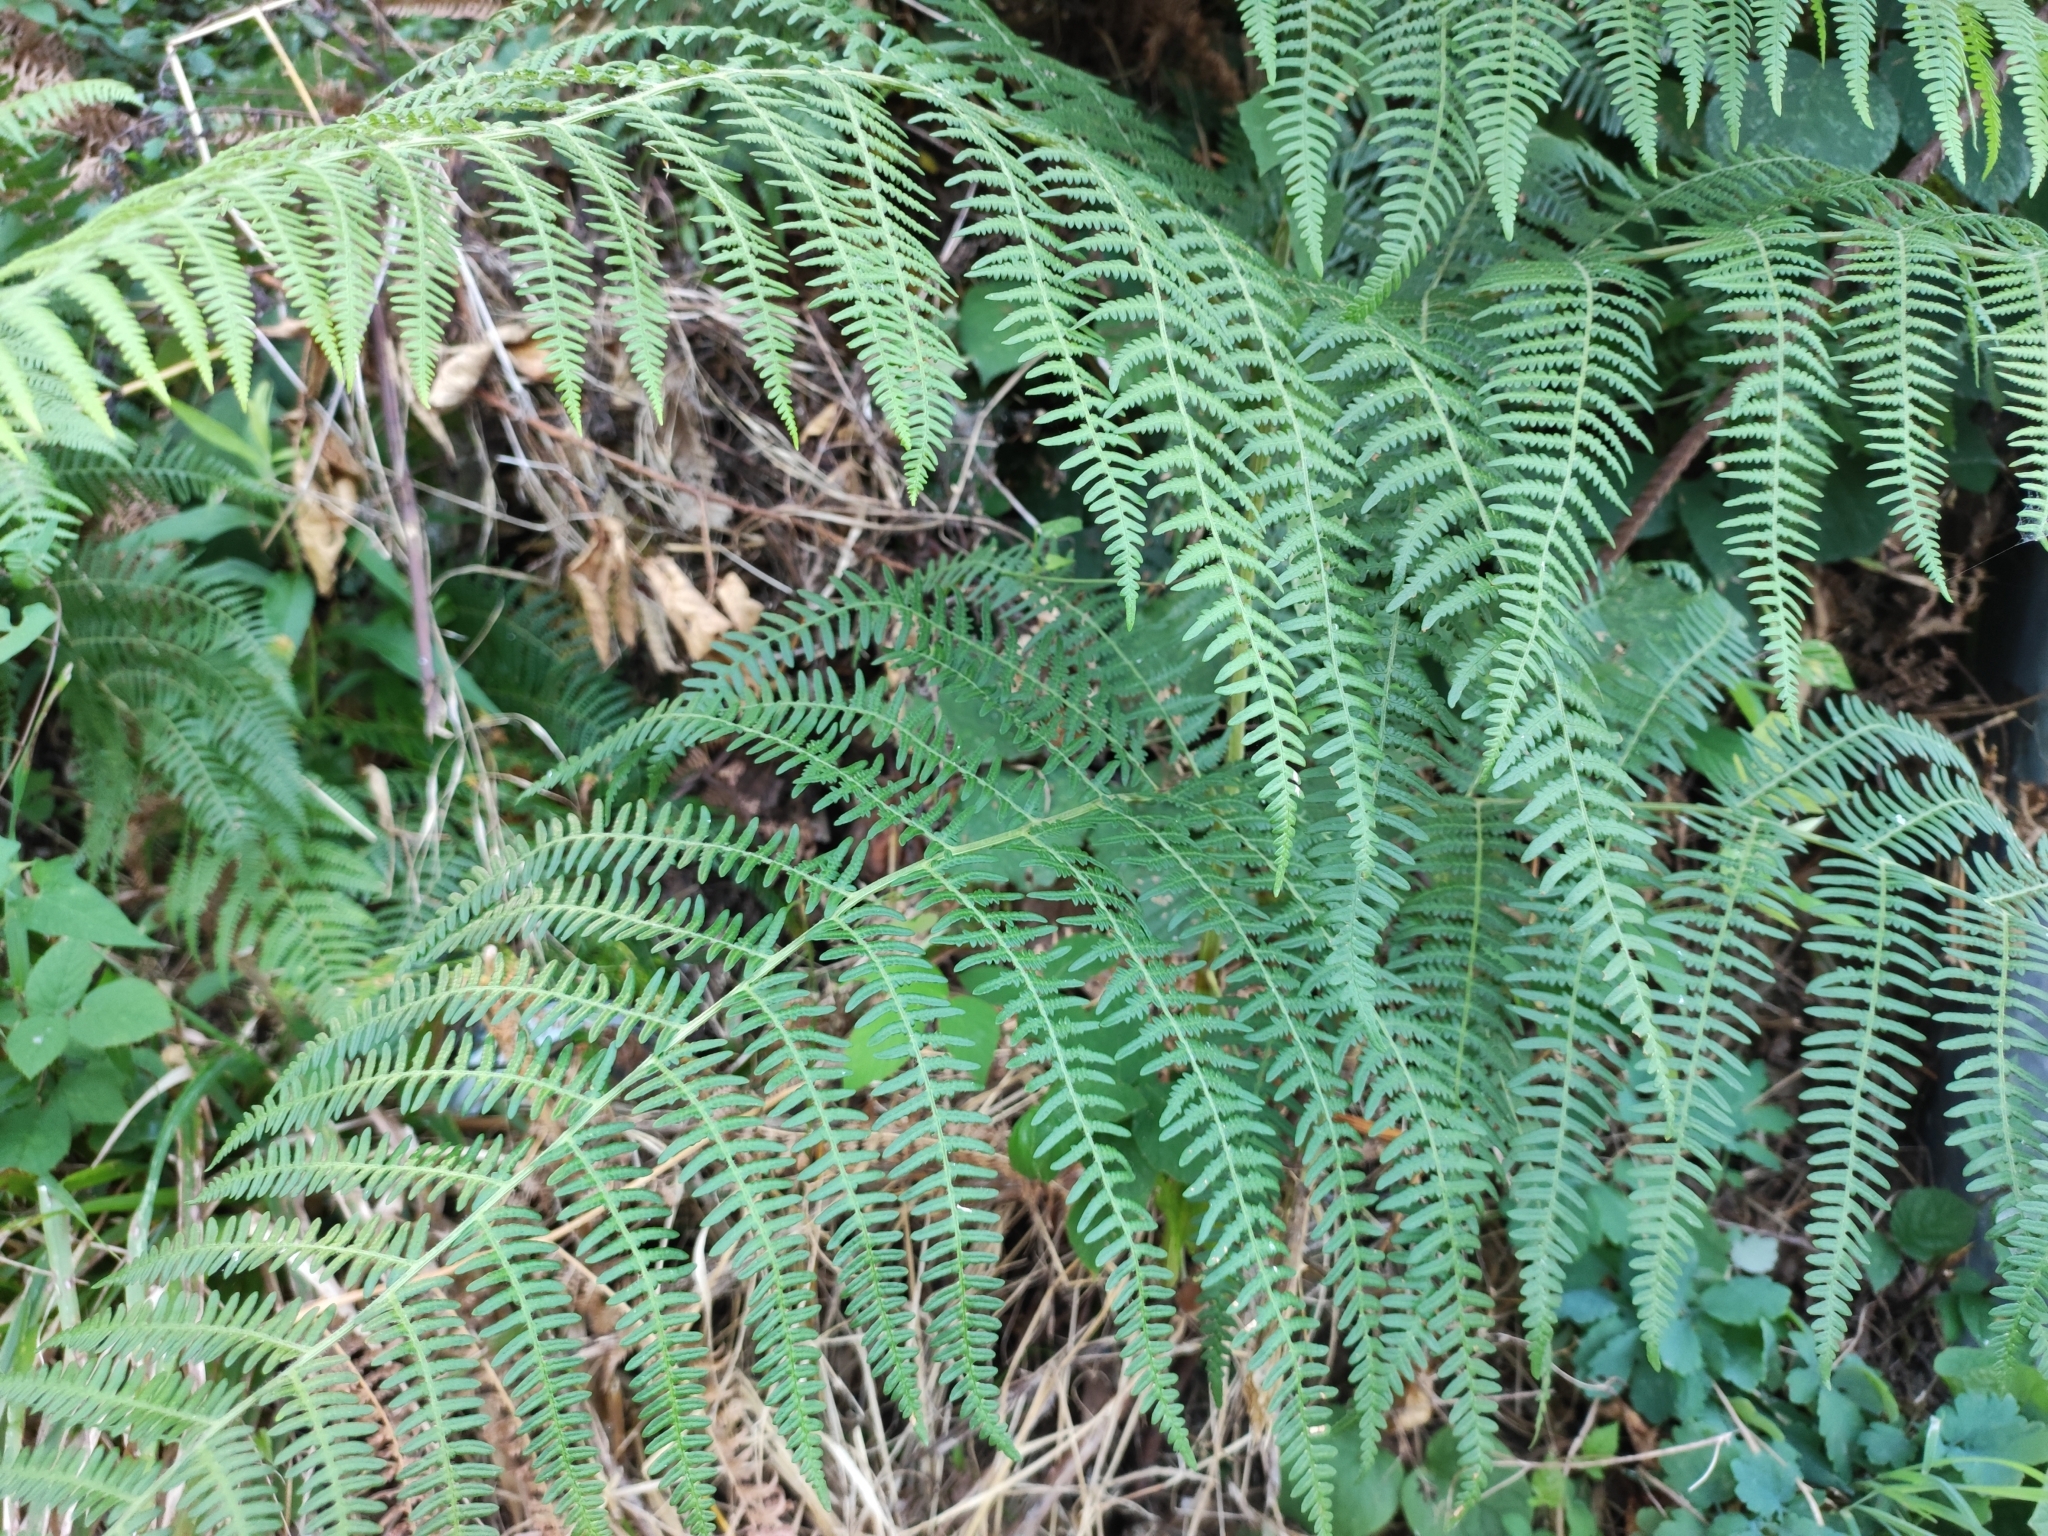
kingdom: Plantae
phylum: Tracheophyta
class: Polypodiopsida
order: Polypodiales
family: Dennstaedtiaceae
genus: Pteridium
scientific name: Pteridium tauricum
